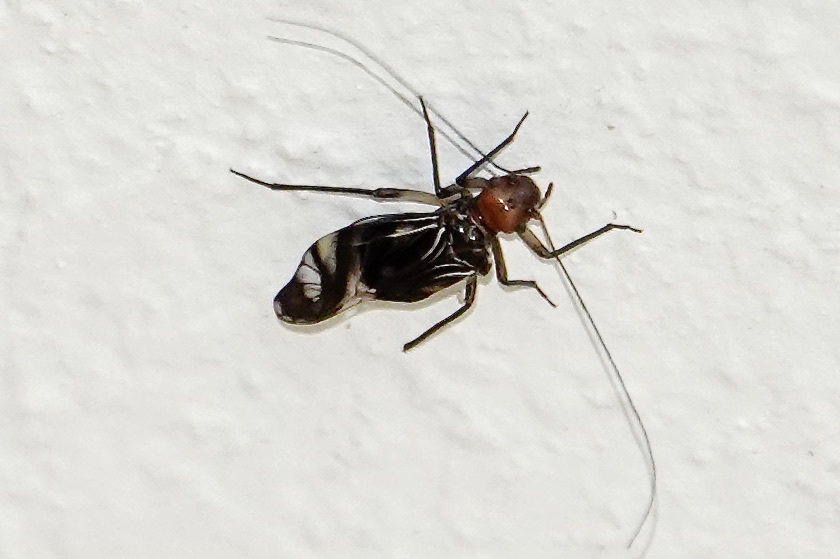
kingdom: Animalia
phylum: Arthropoda
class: Insecta
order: Psocodea
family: Psocidae
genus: Cerastipsocus
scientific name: Cerastipsocus trifasciatus
